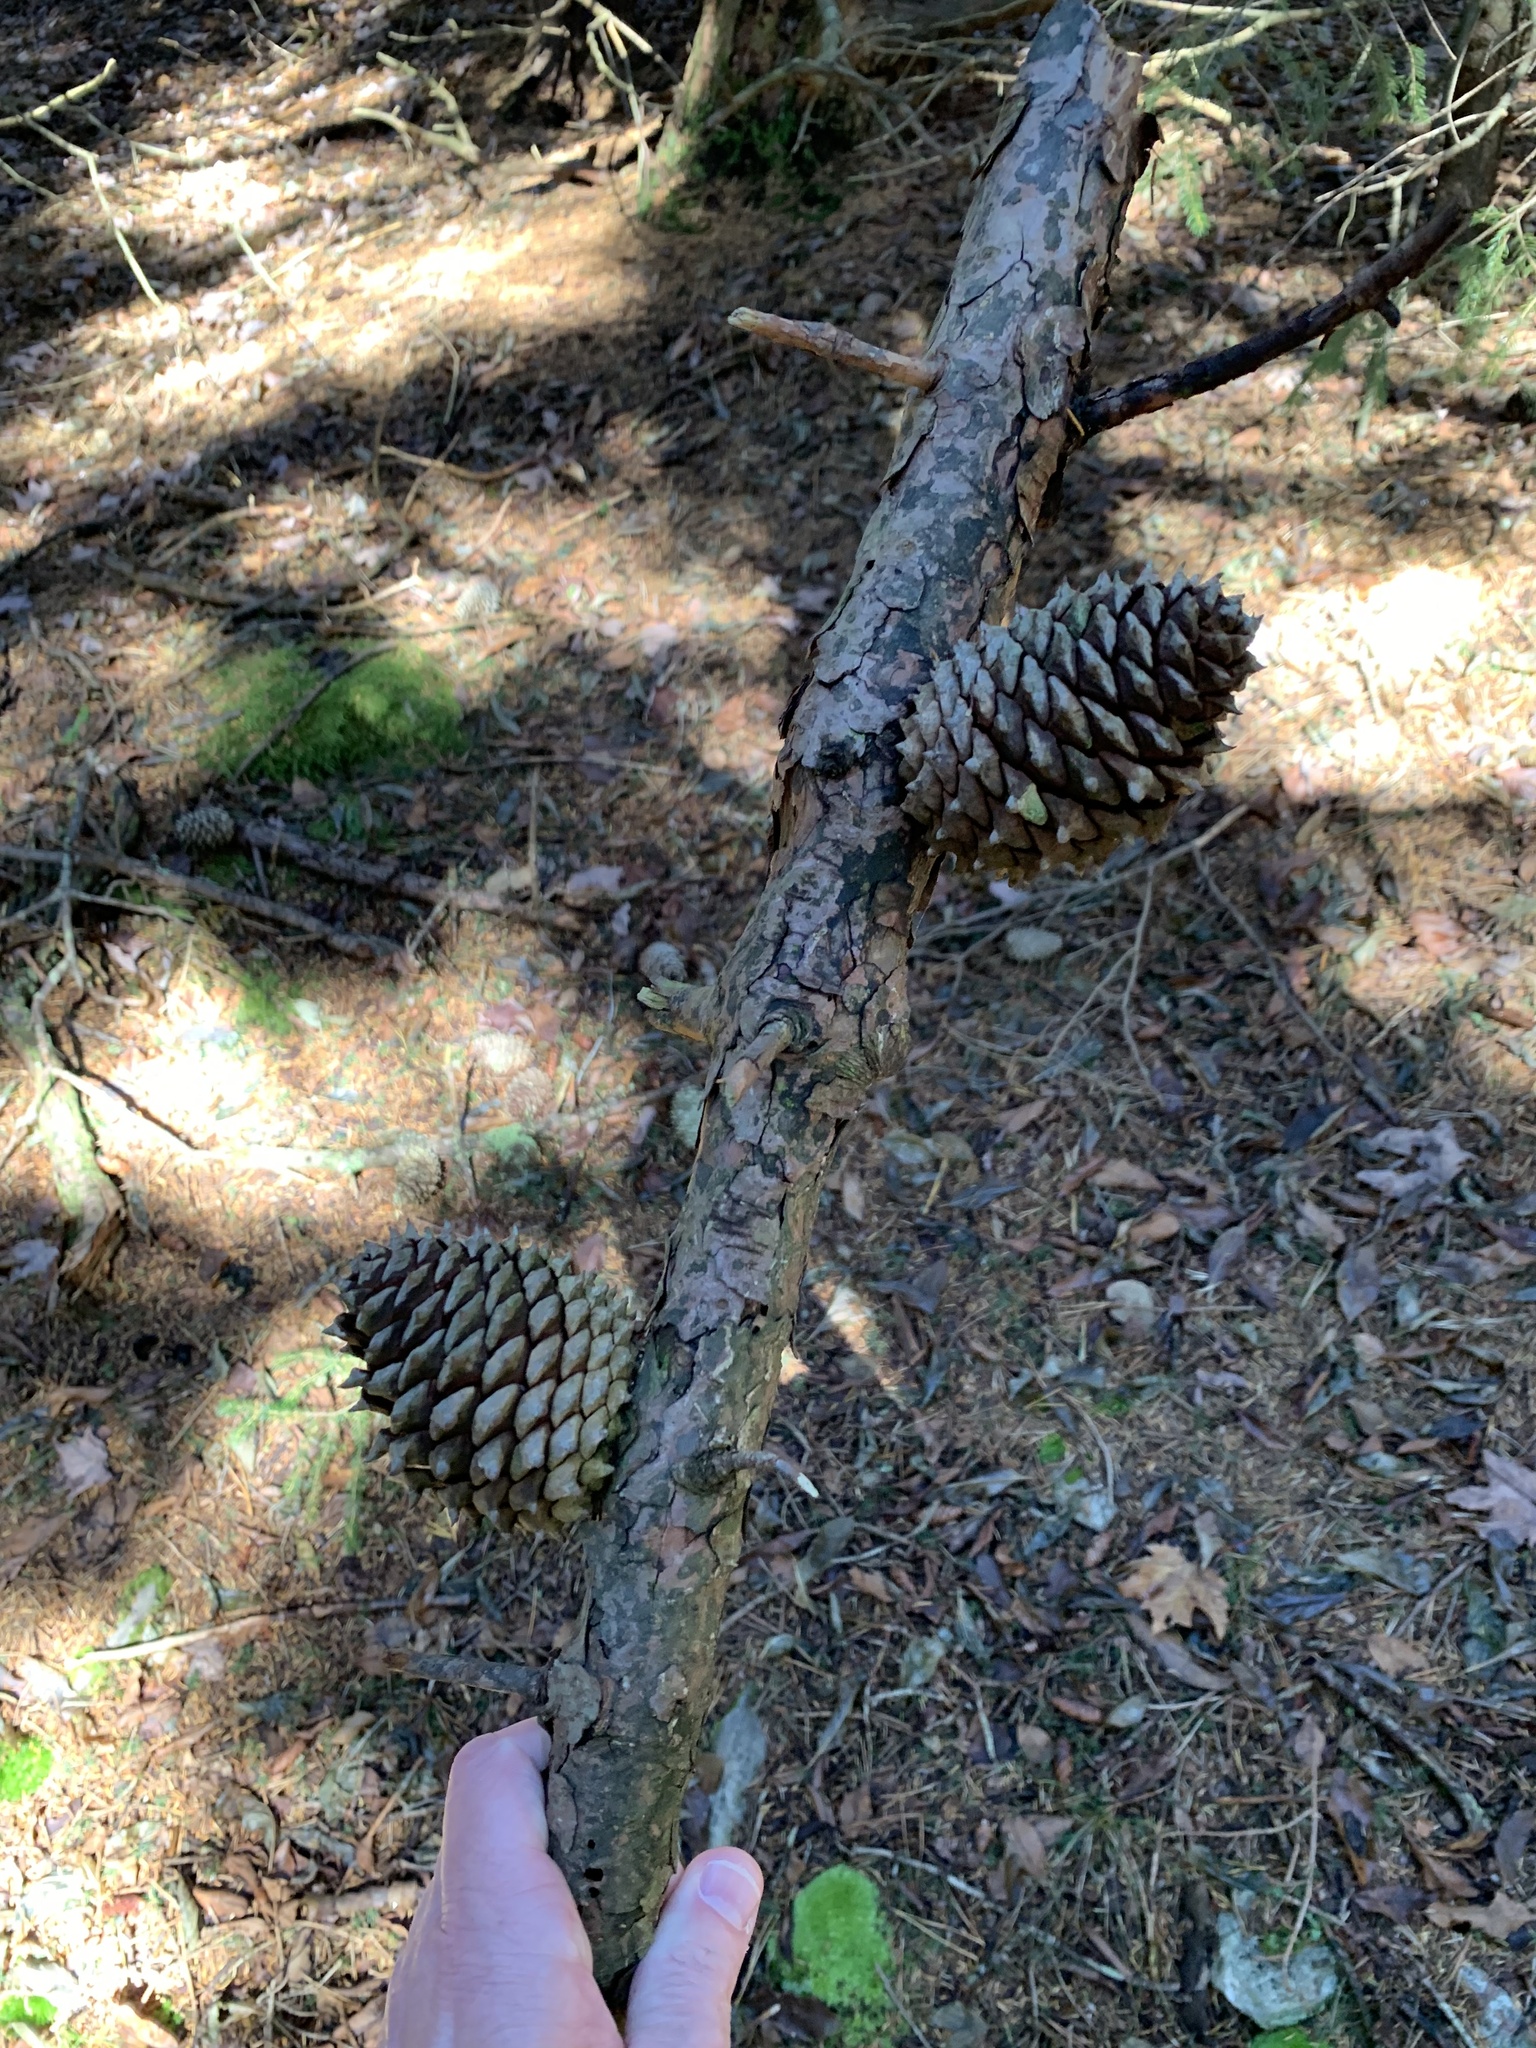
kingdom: Plantae
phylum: Tracheophyta
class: Pinopsida
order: Pinales
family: Pinaceae
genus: Pinus
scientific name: Pinus pungens
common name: Hickory pine
